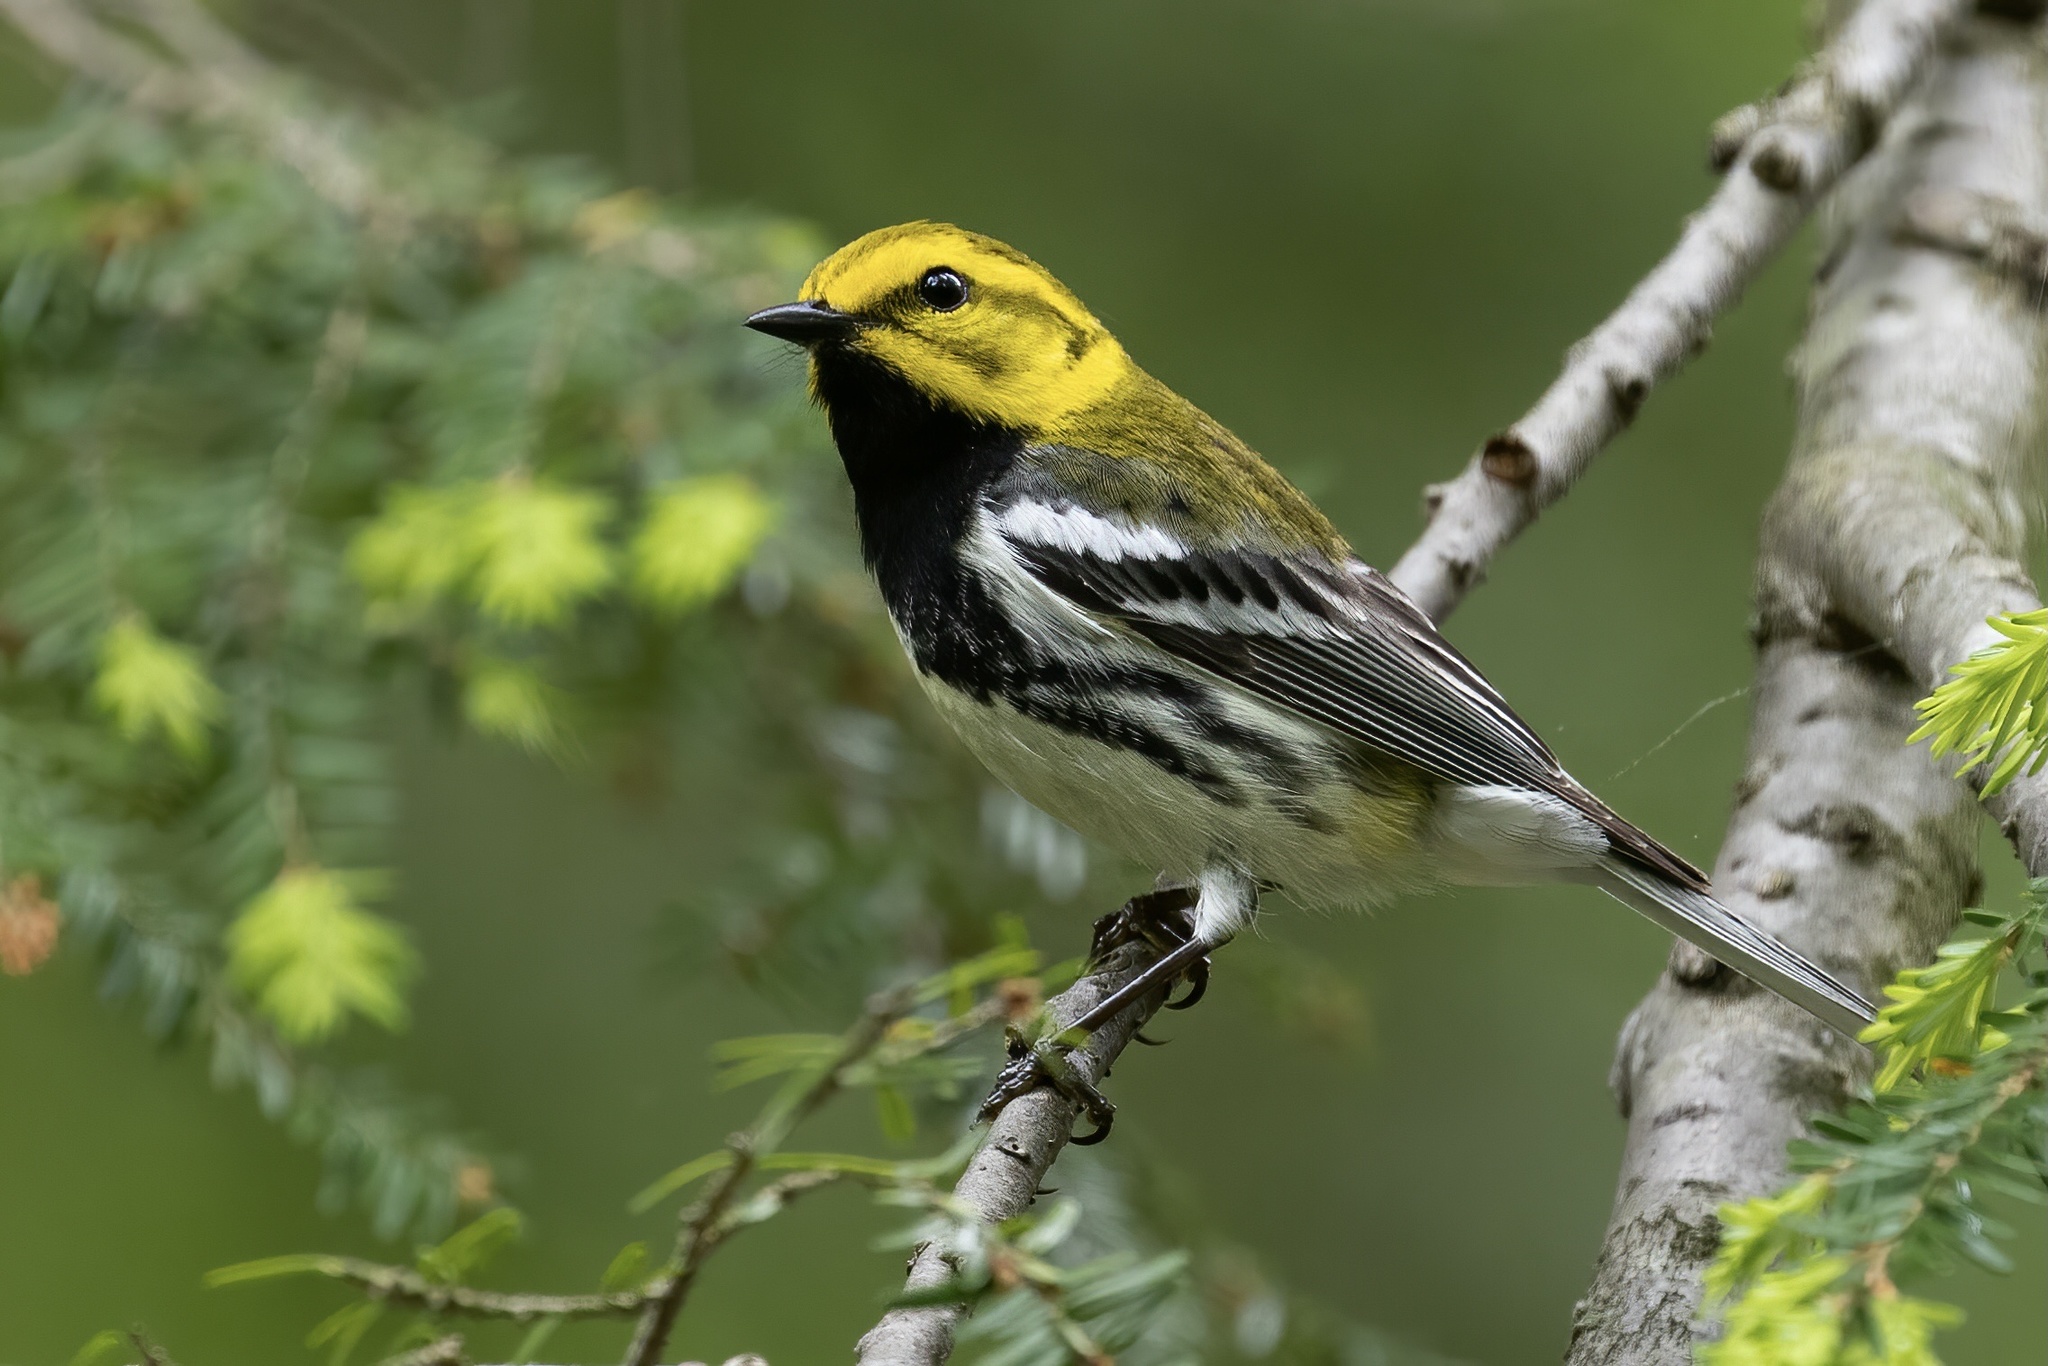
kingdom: Animalia
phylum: Chordata
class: Aves
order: Passeriformes
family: Parulidae
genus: Setophaga
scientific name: Setophaga virens
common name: Black-throated green warbler
